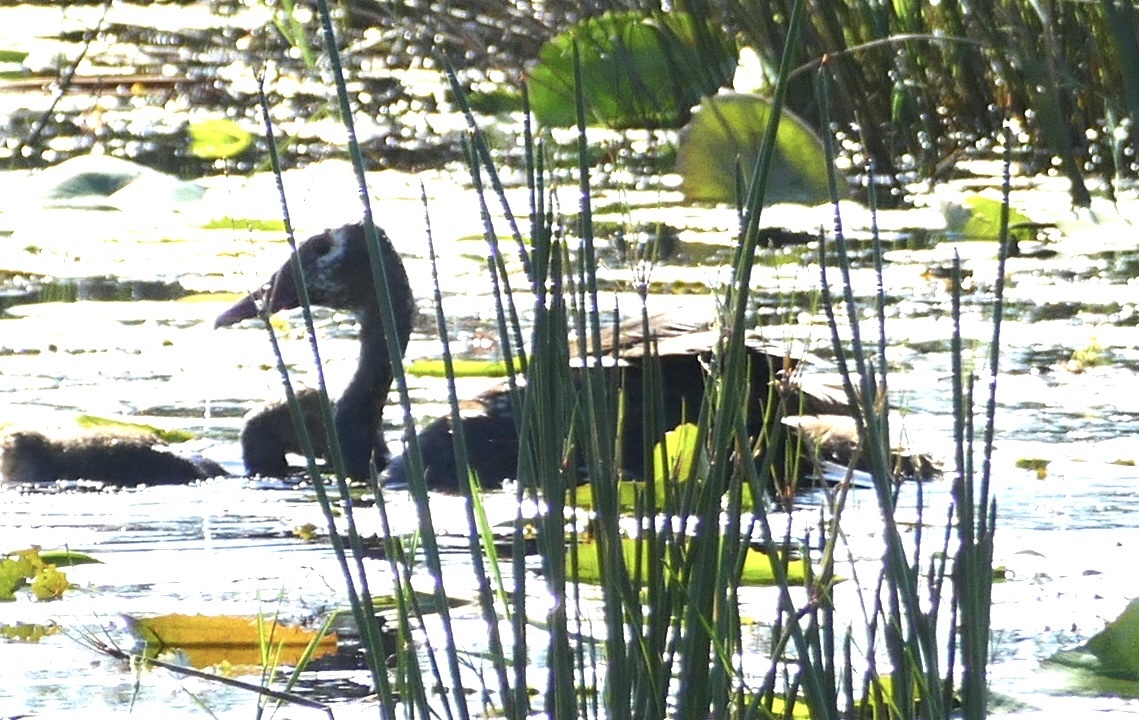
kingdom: Animalia
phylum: Chordata
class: Aves
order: Anseriformes
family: Anatidae
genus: Plectropterus
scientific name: Plectropterus gambensis
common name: Spur-winged goose
